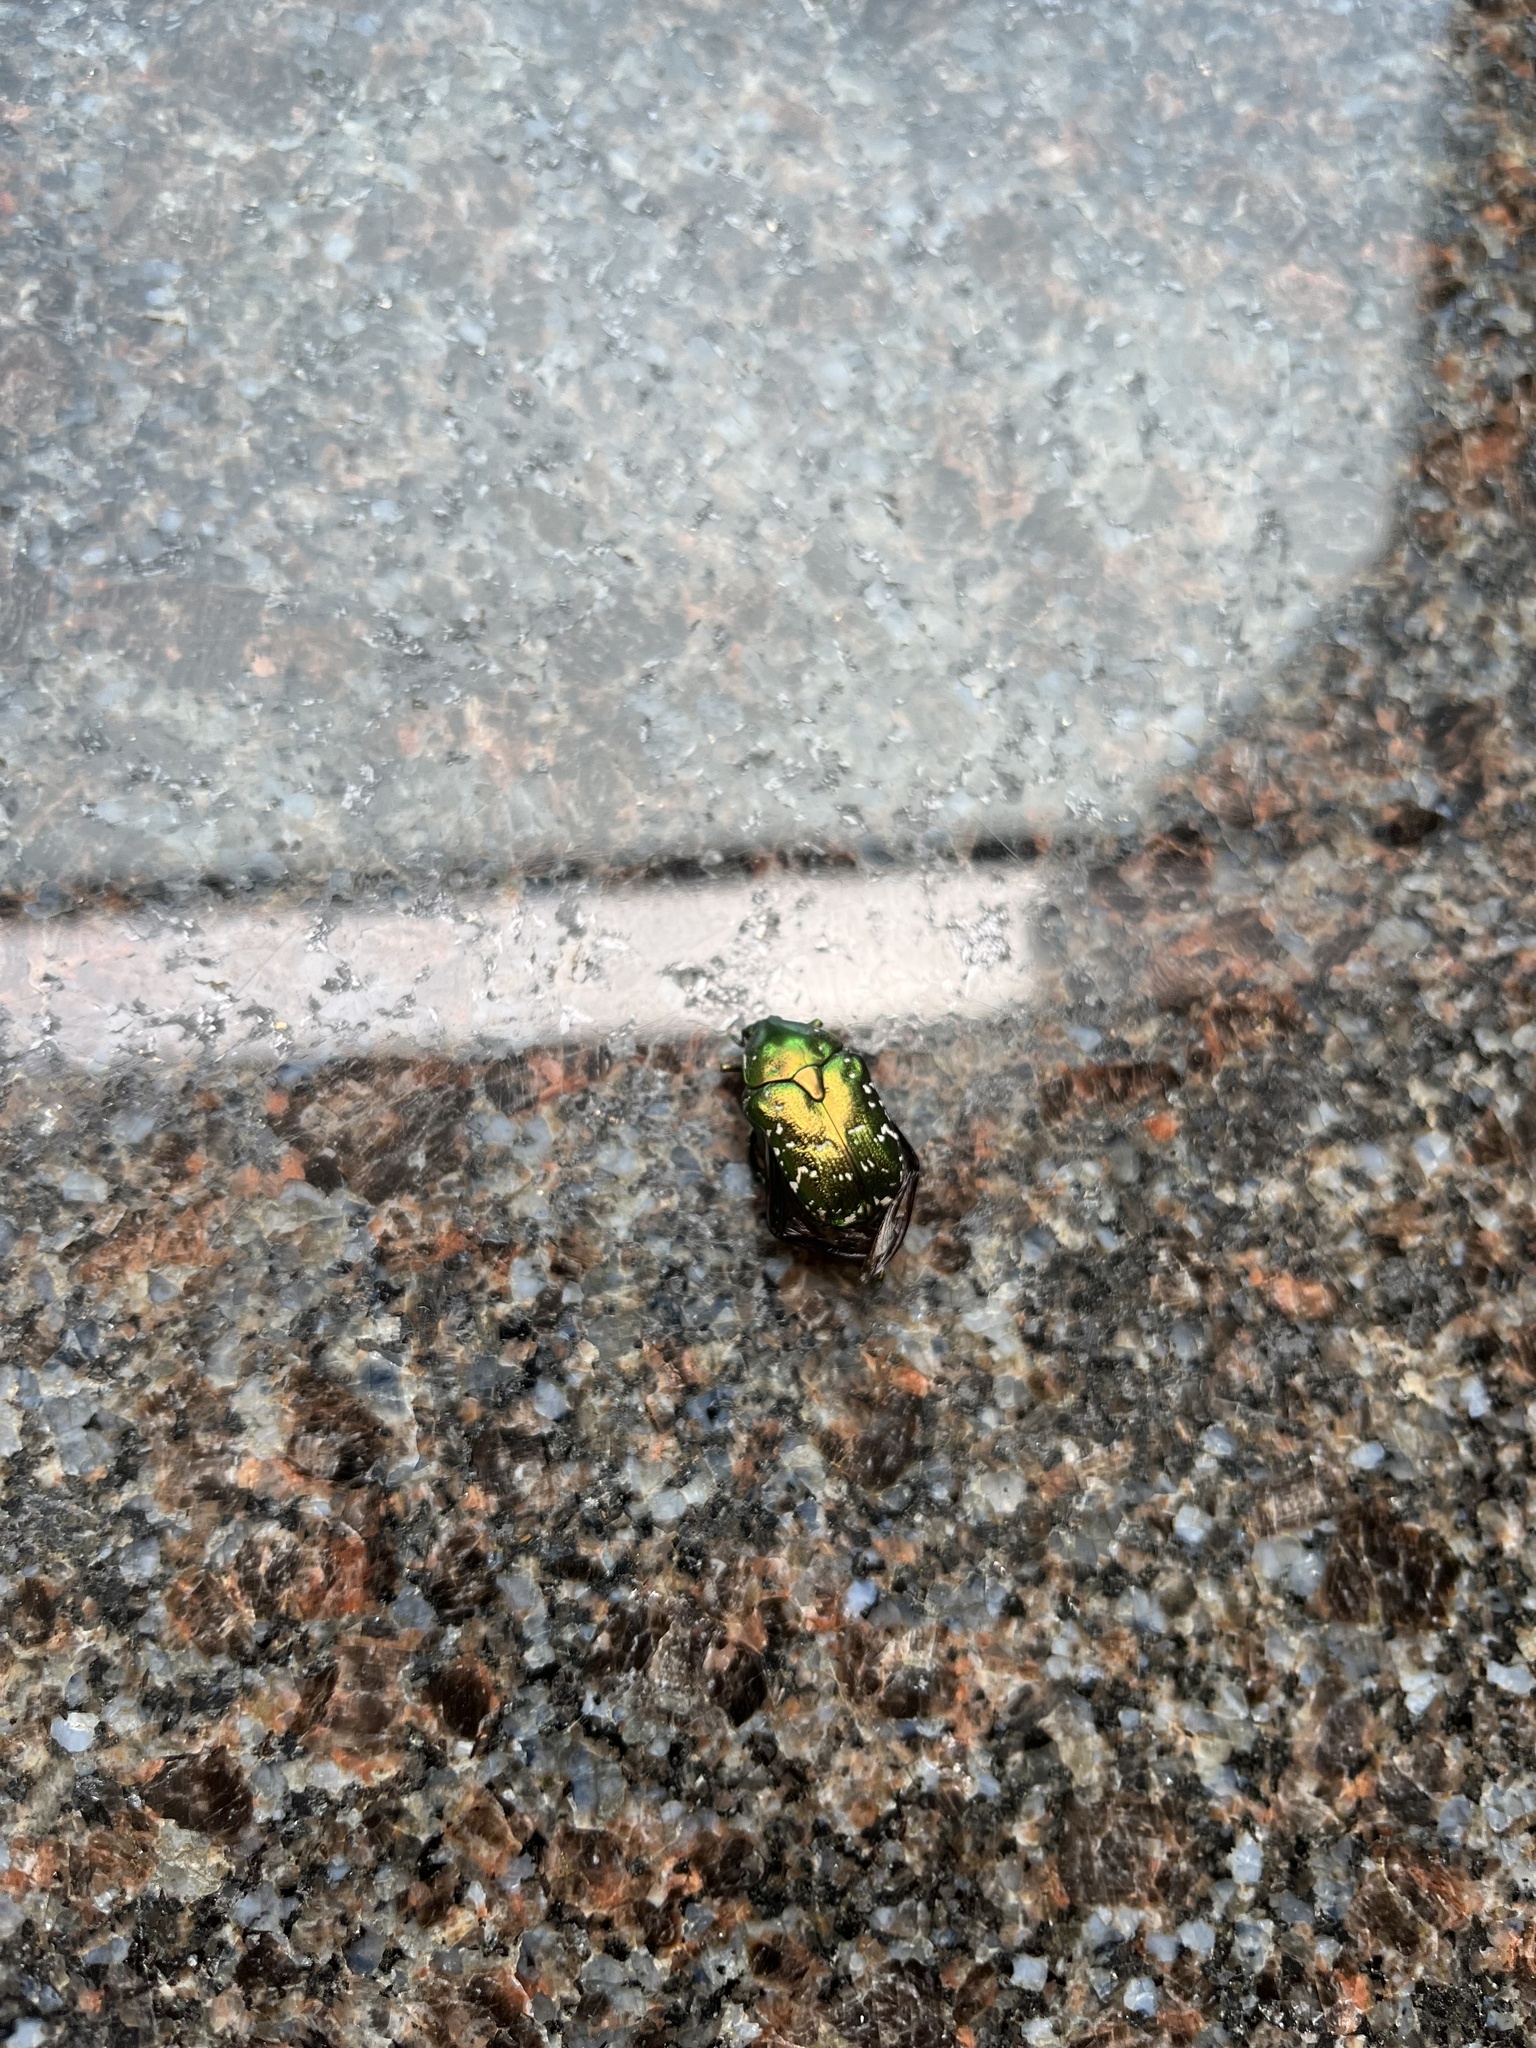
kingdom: Animalia
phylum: Arthropoda
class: Insecta
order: Coleoptera
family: Scarabaeidae
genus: Protaetia
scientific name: Protaetia orientalis
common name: Oriental flower beetle
